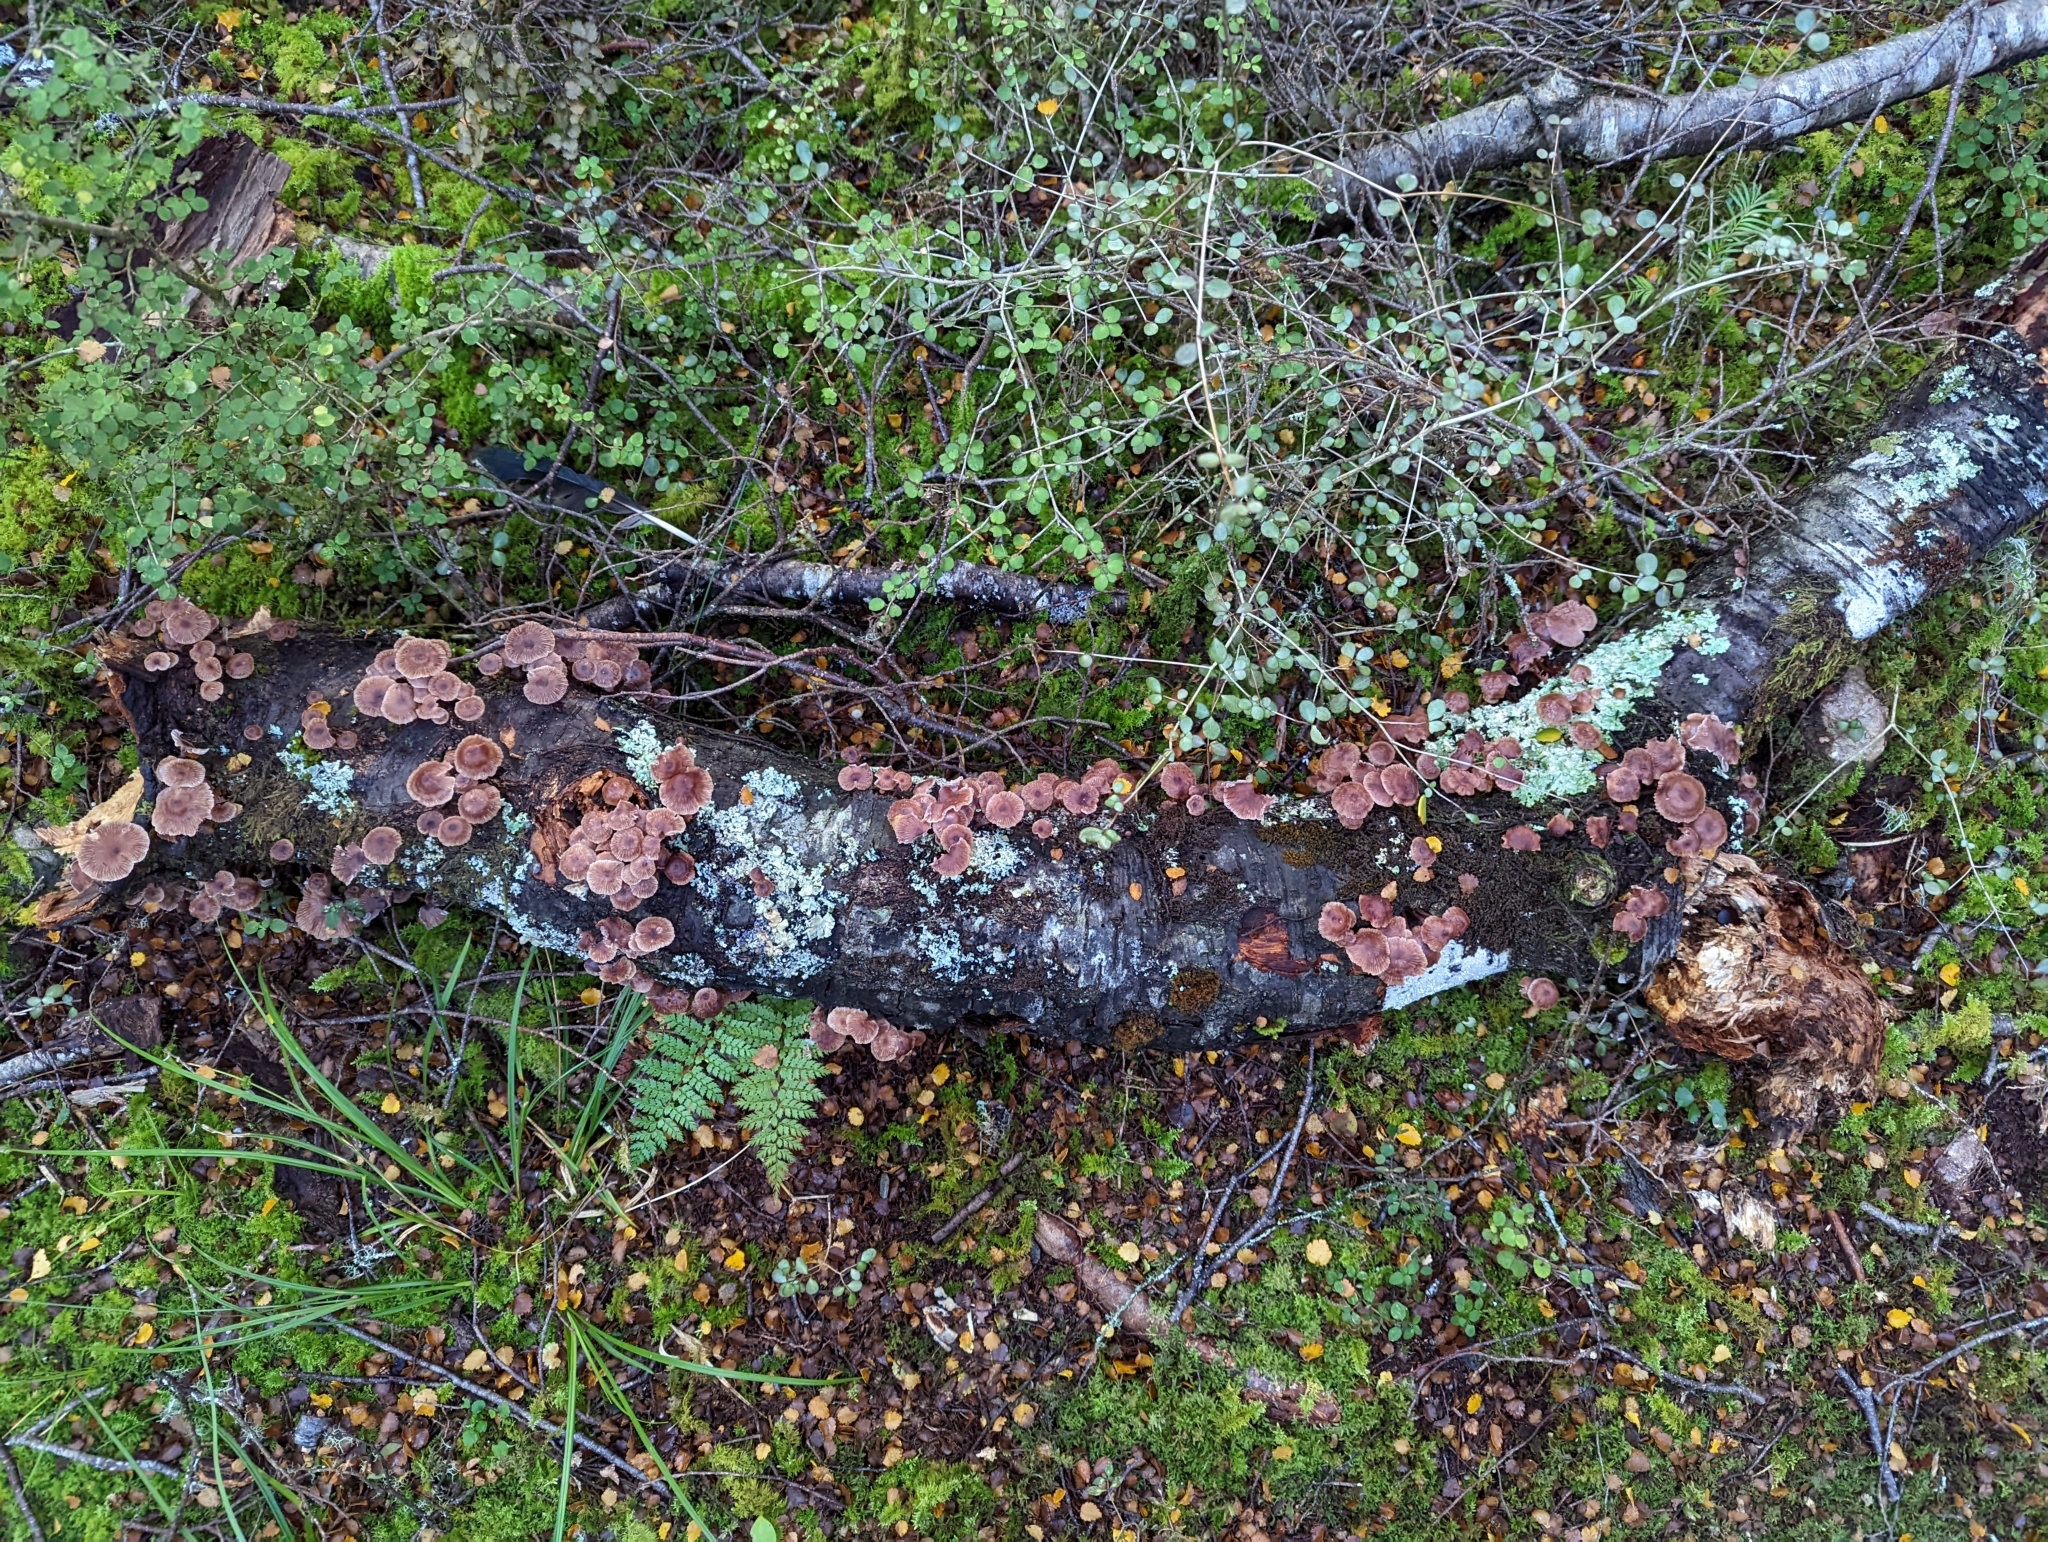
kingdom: Fungi
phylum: Basidiomycota
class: Agaricomycetes
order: Agaricales
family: Omphalotaceae
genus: Gymnopus
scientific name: Gymnopus ceraceicola
